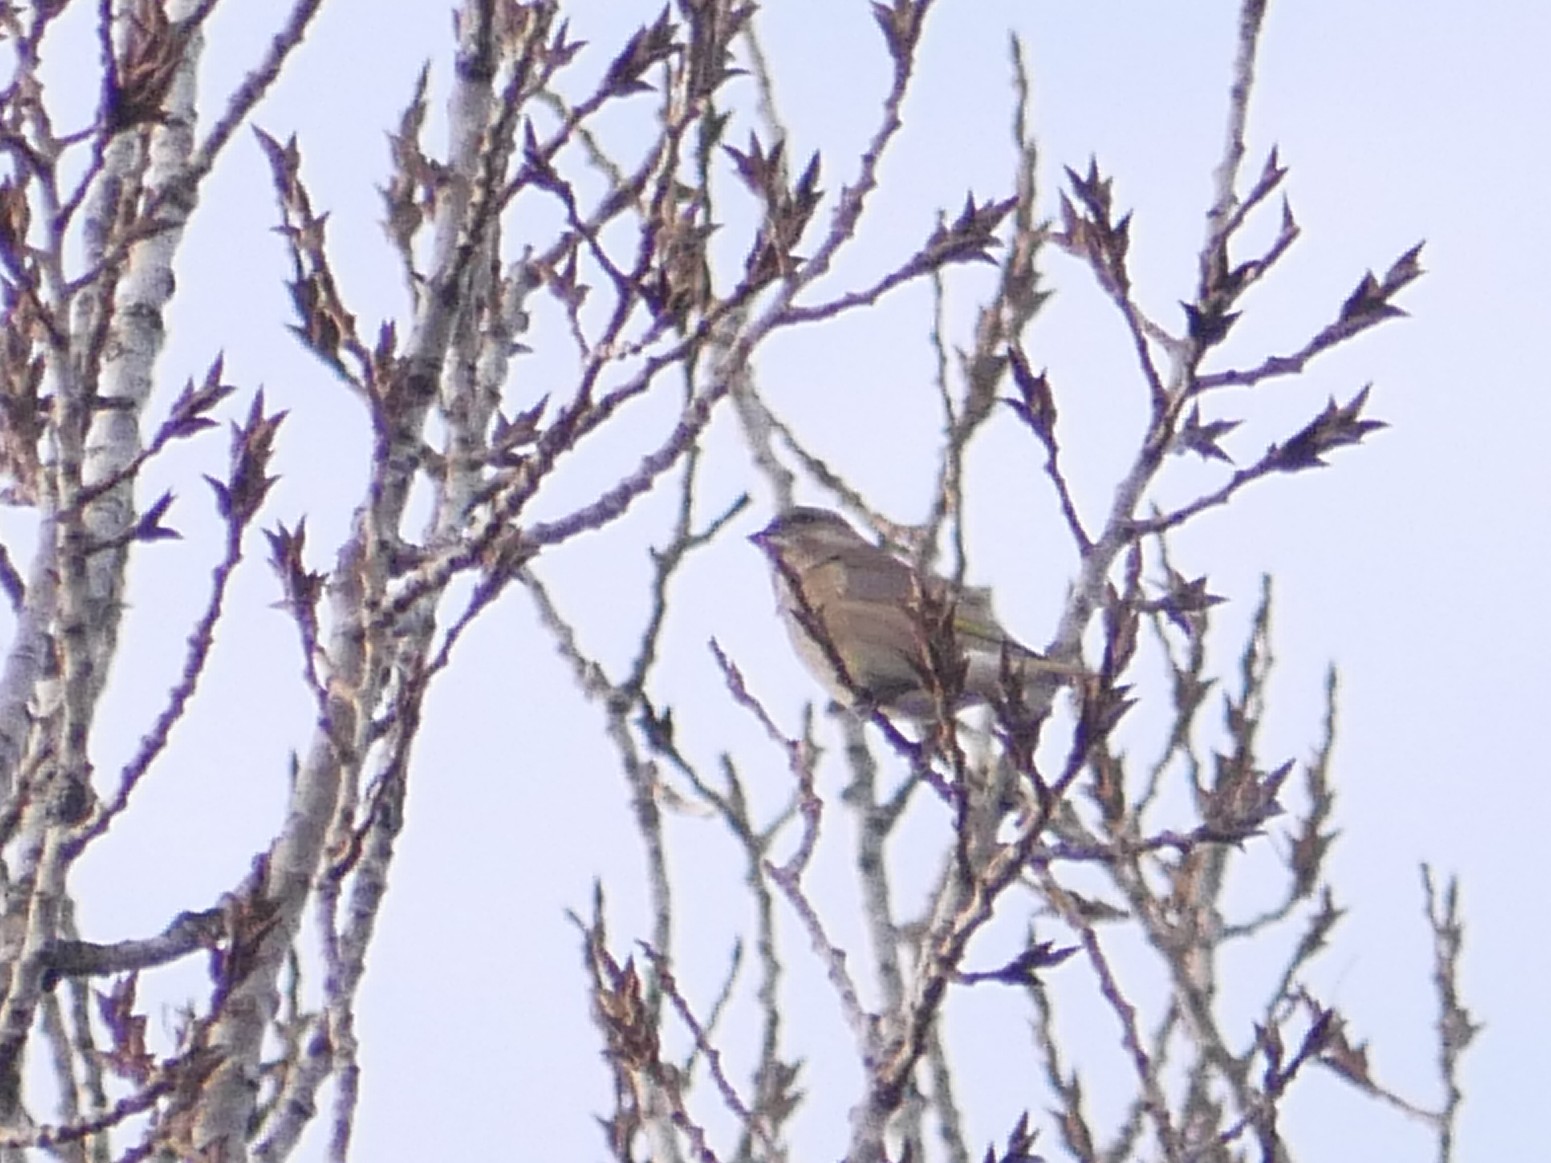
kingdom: Plantae
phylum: Tracheophyta
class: Liliopsida
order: Poales
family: Poaceae
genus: Chloris
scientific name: Chloris chloris
